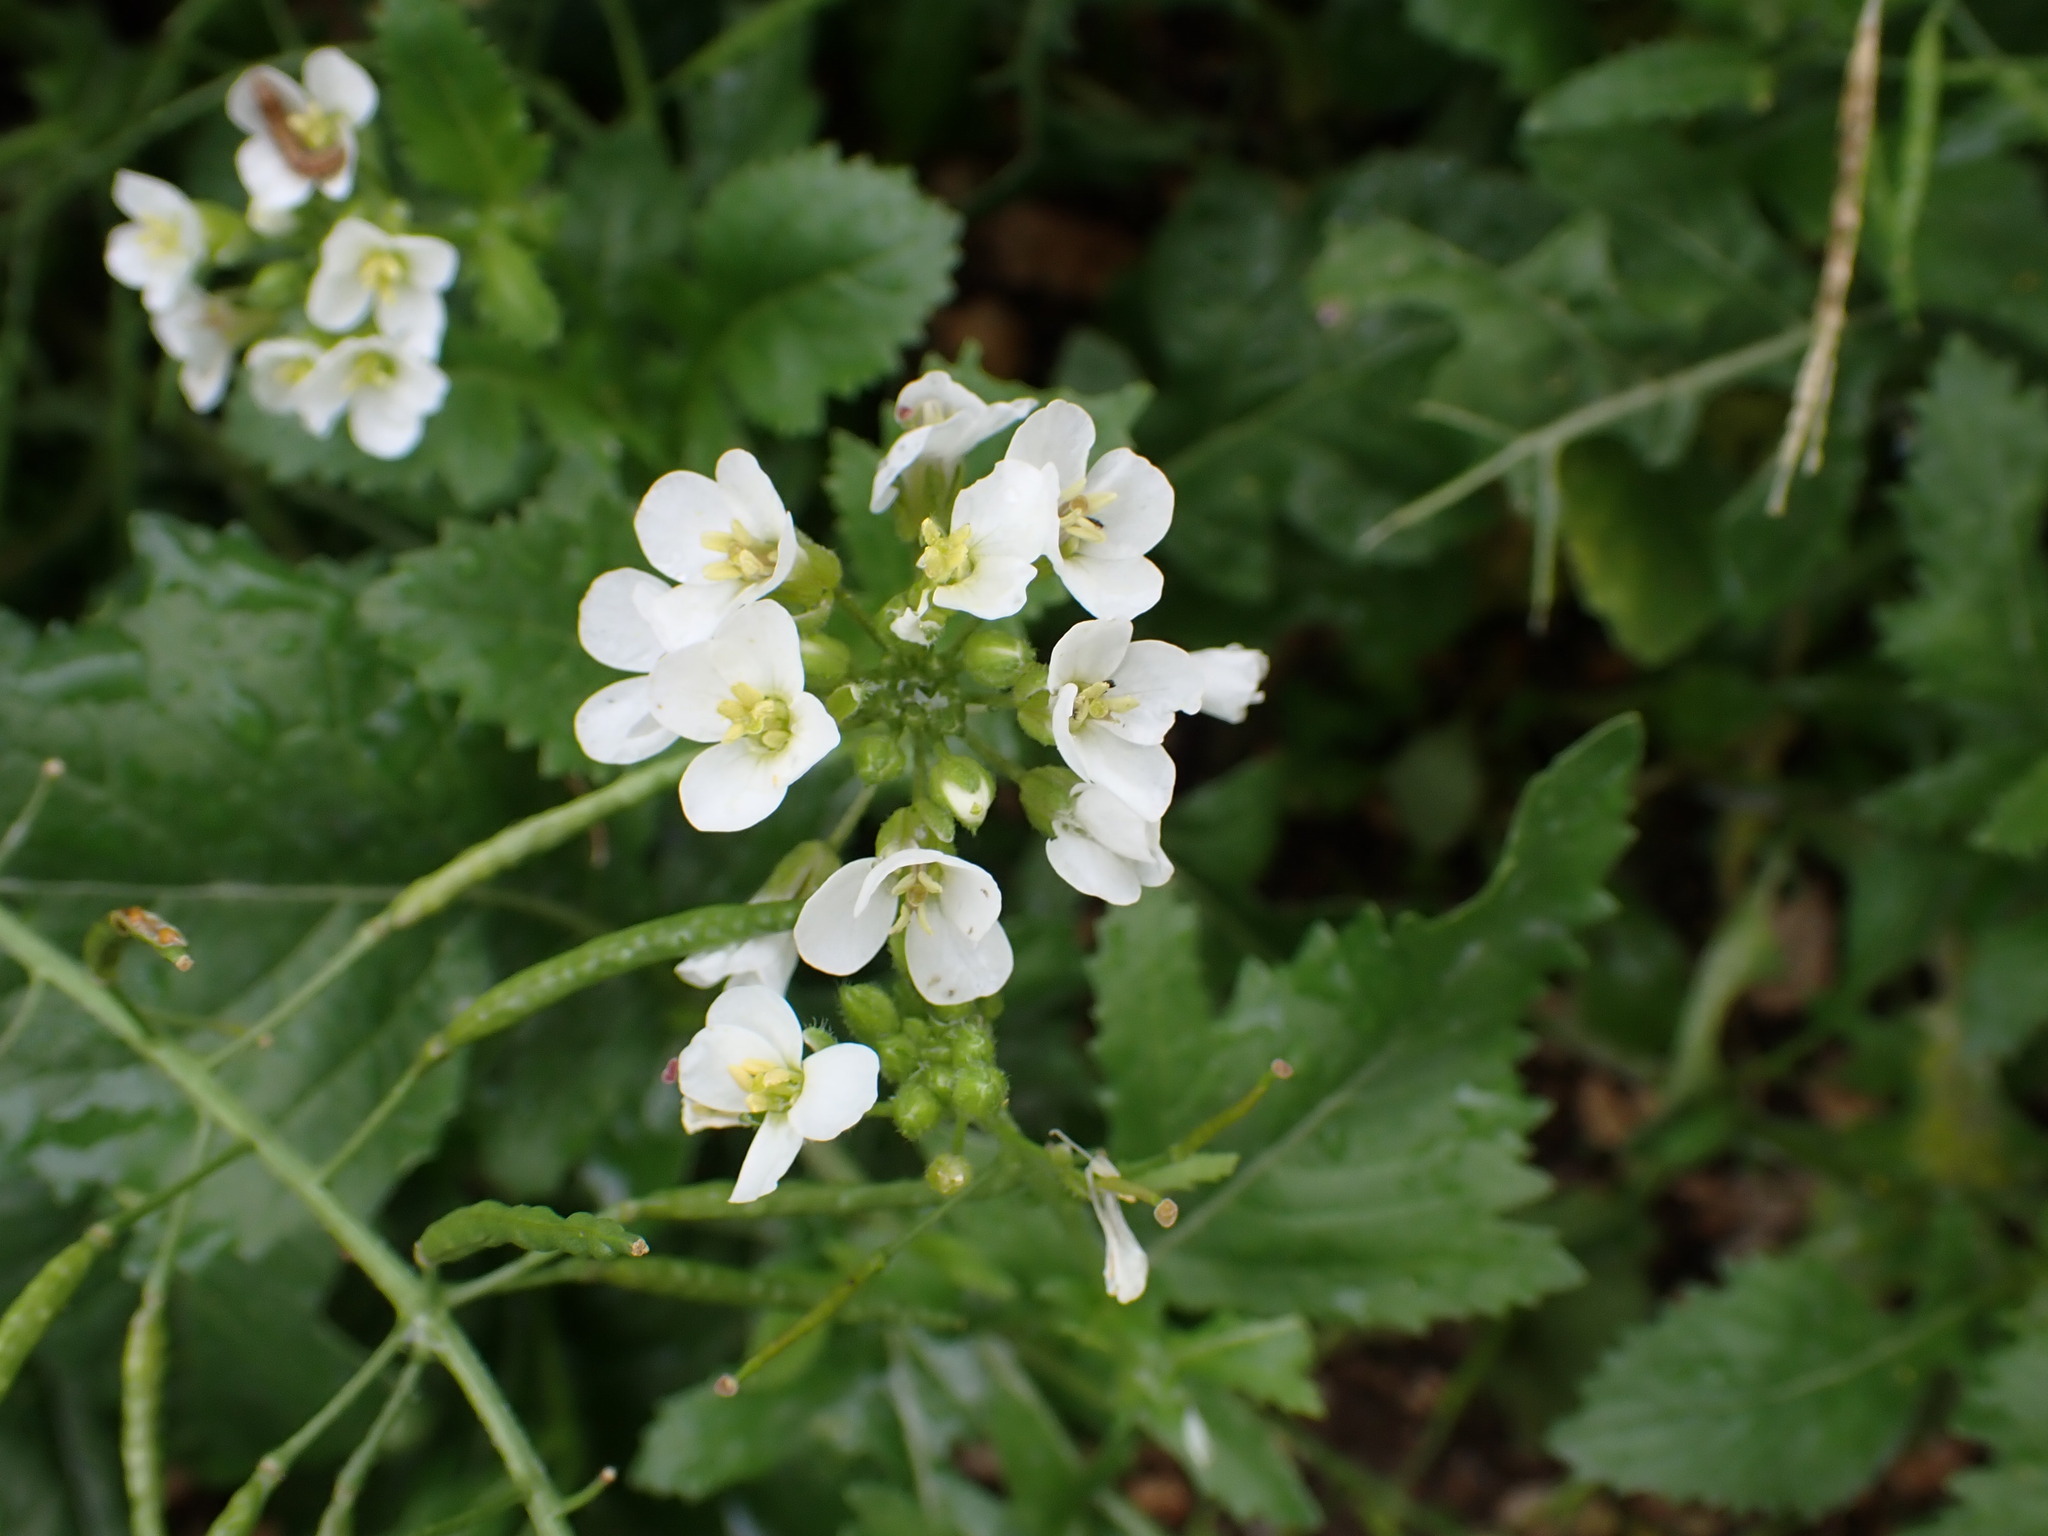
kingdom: Plantae
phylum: Tracheophyta
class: Magnoliopsida
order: Brassicales
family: Brassicaceae
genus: Diplotaxis
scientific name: Diplotaxis erucoides
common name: White rocket
